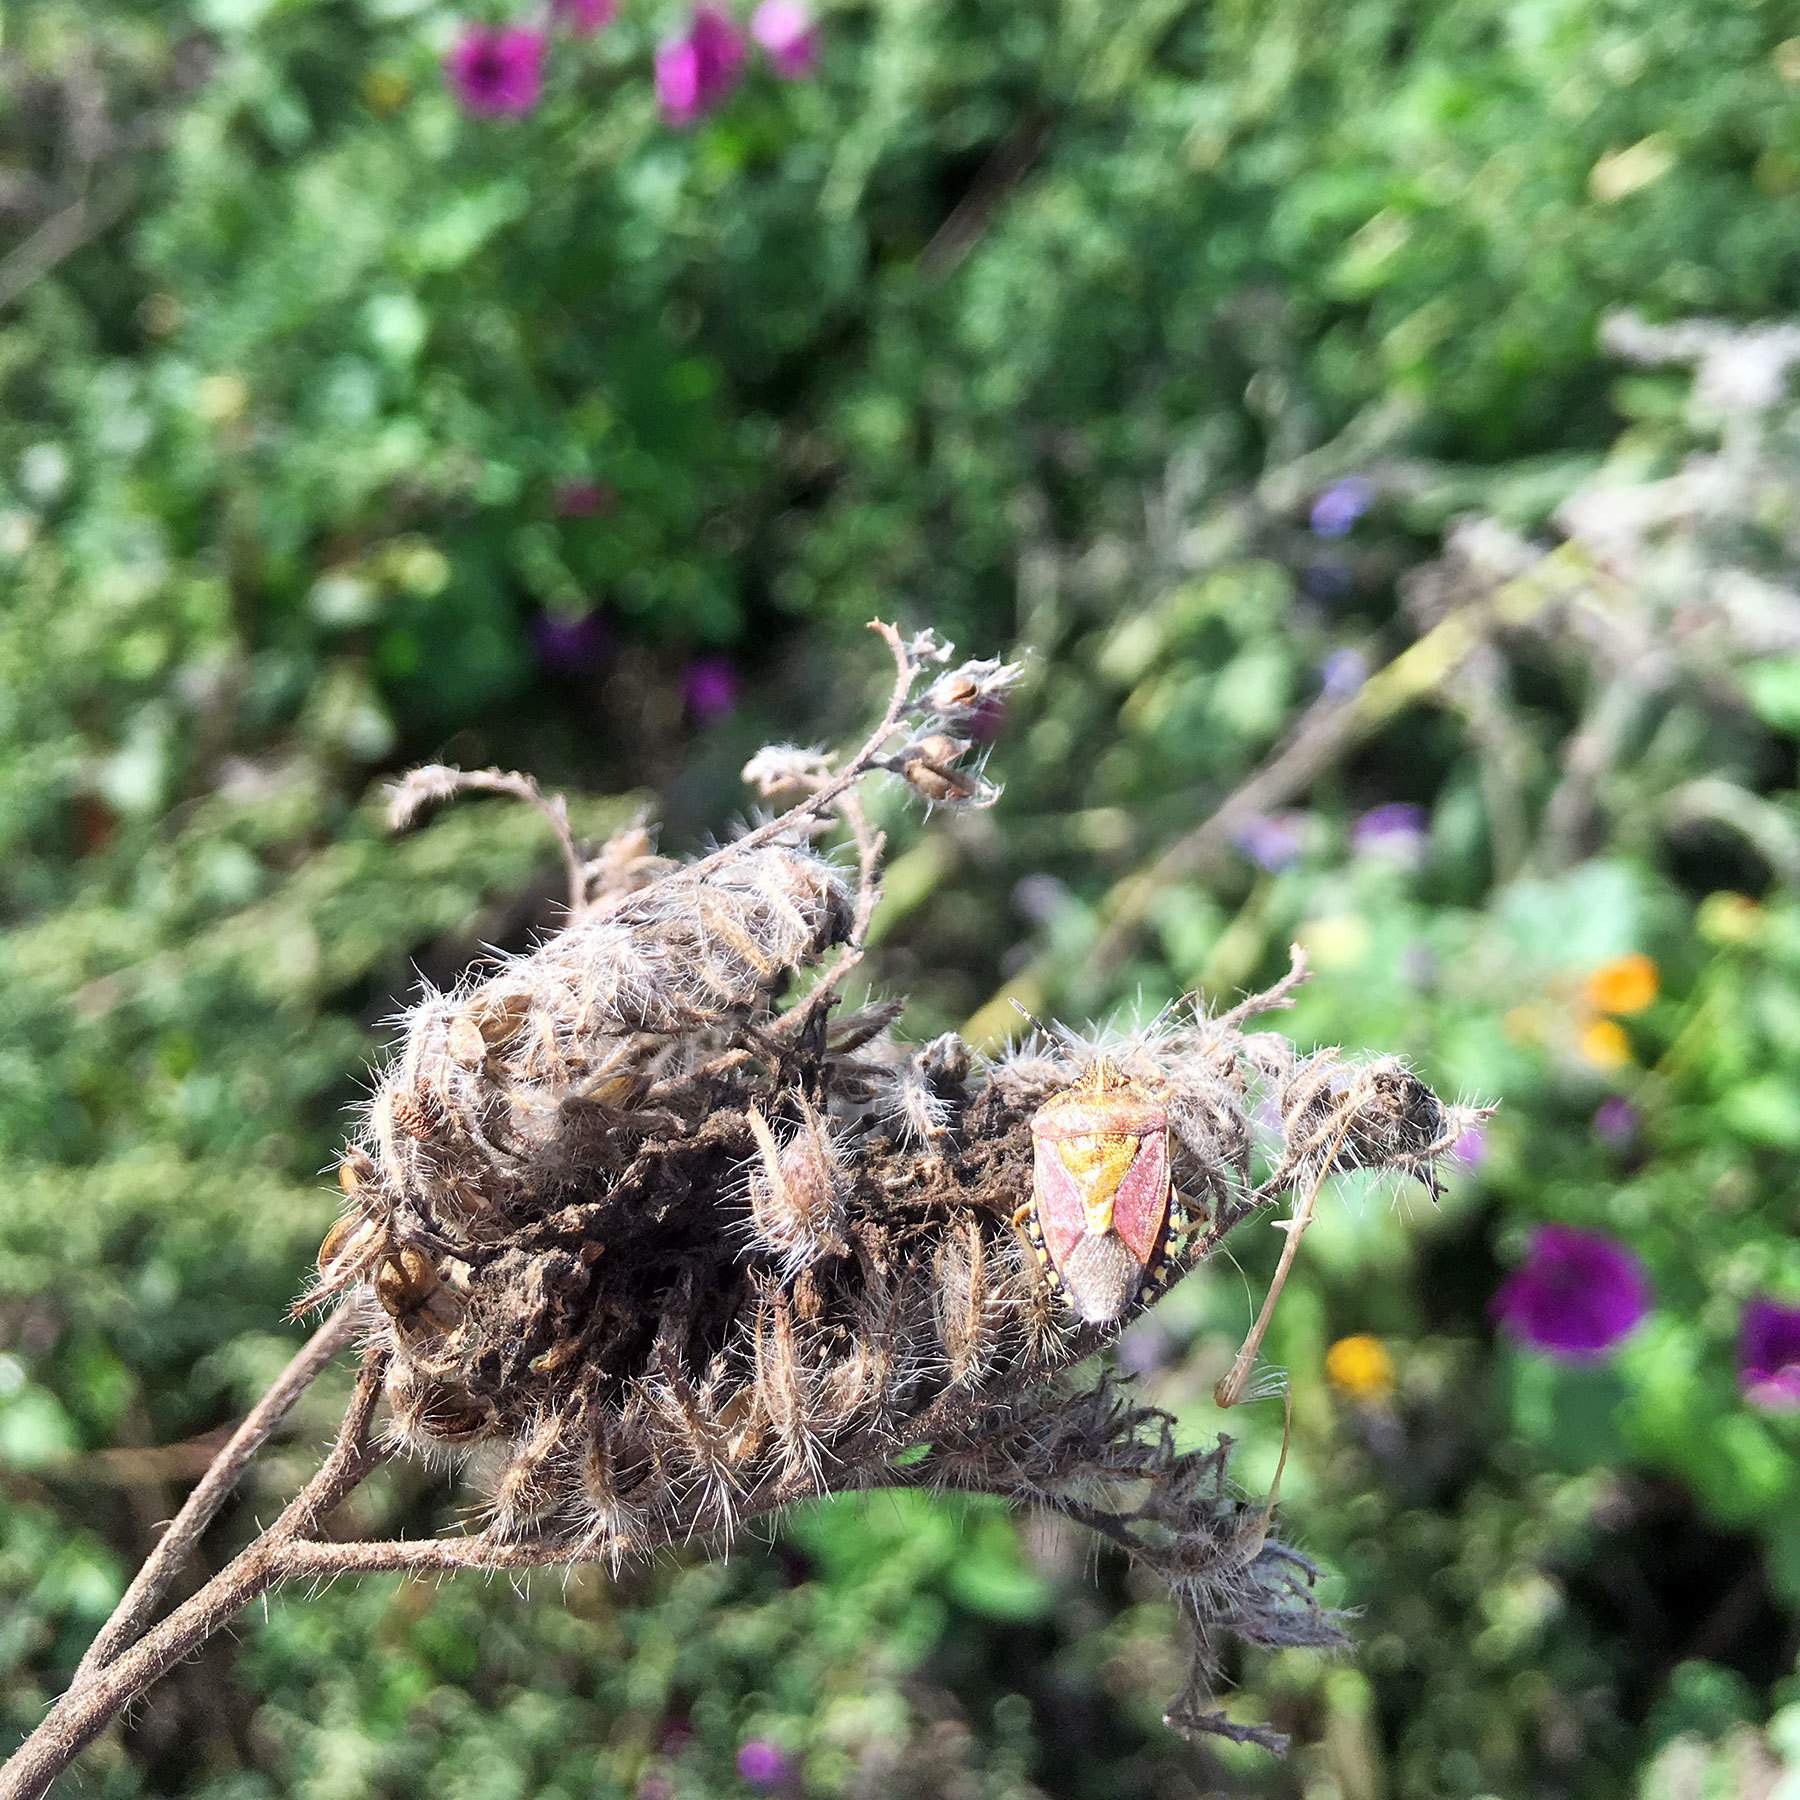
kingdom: Animalia
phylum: Arthropoda
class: Insecta
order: Hemiptera
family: Pentatomidae
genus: Dolycoris
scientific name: Dolycoris baccarum
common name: Sloe bug
